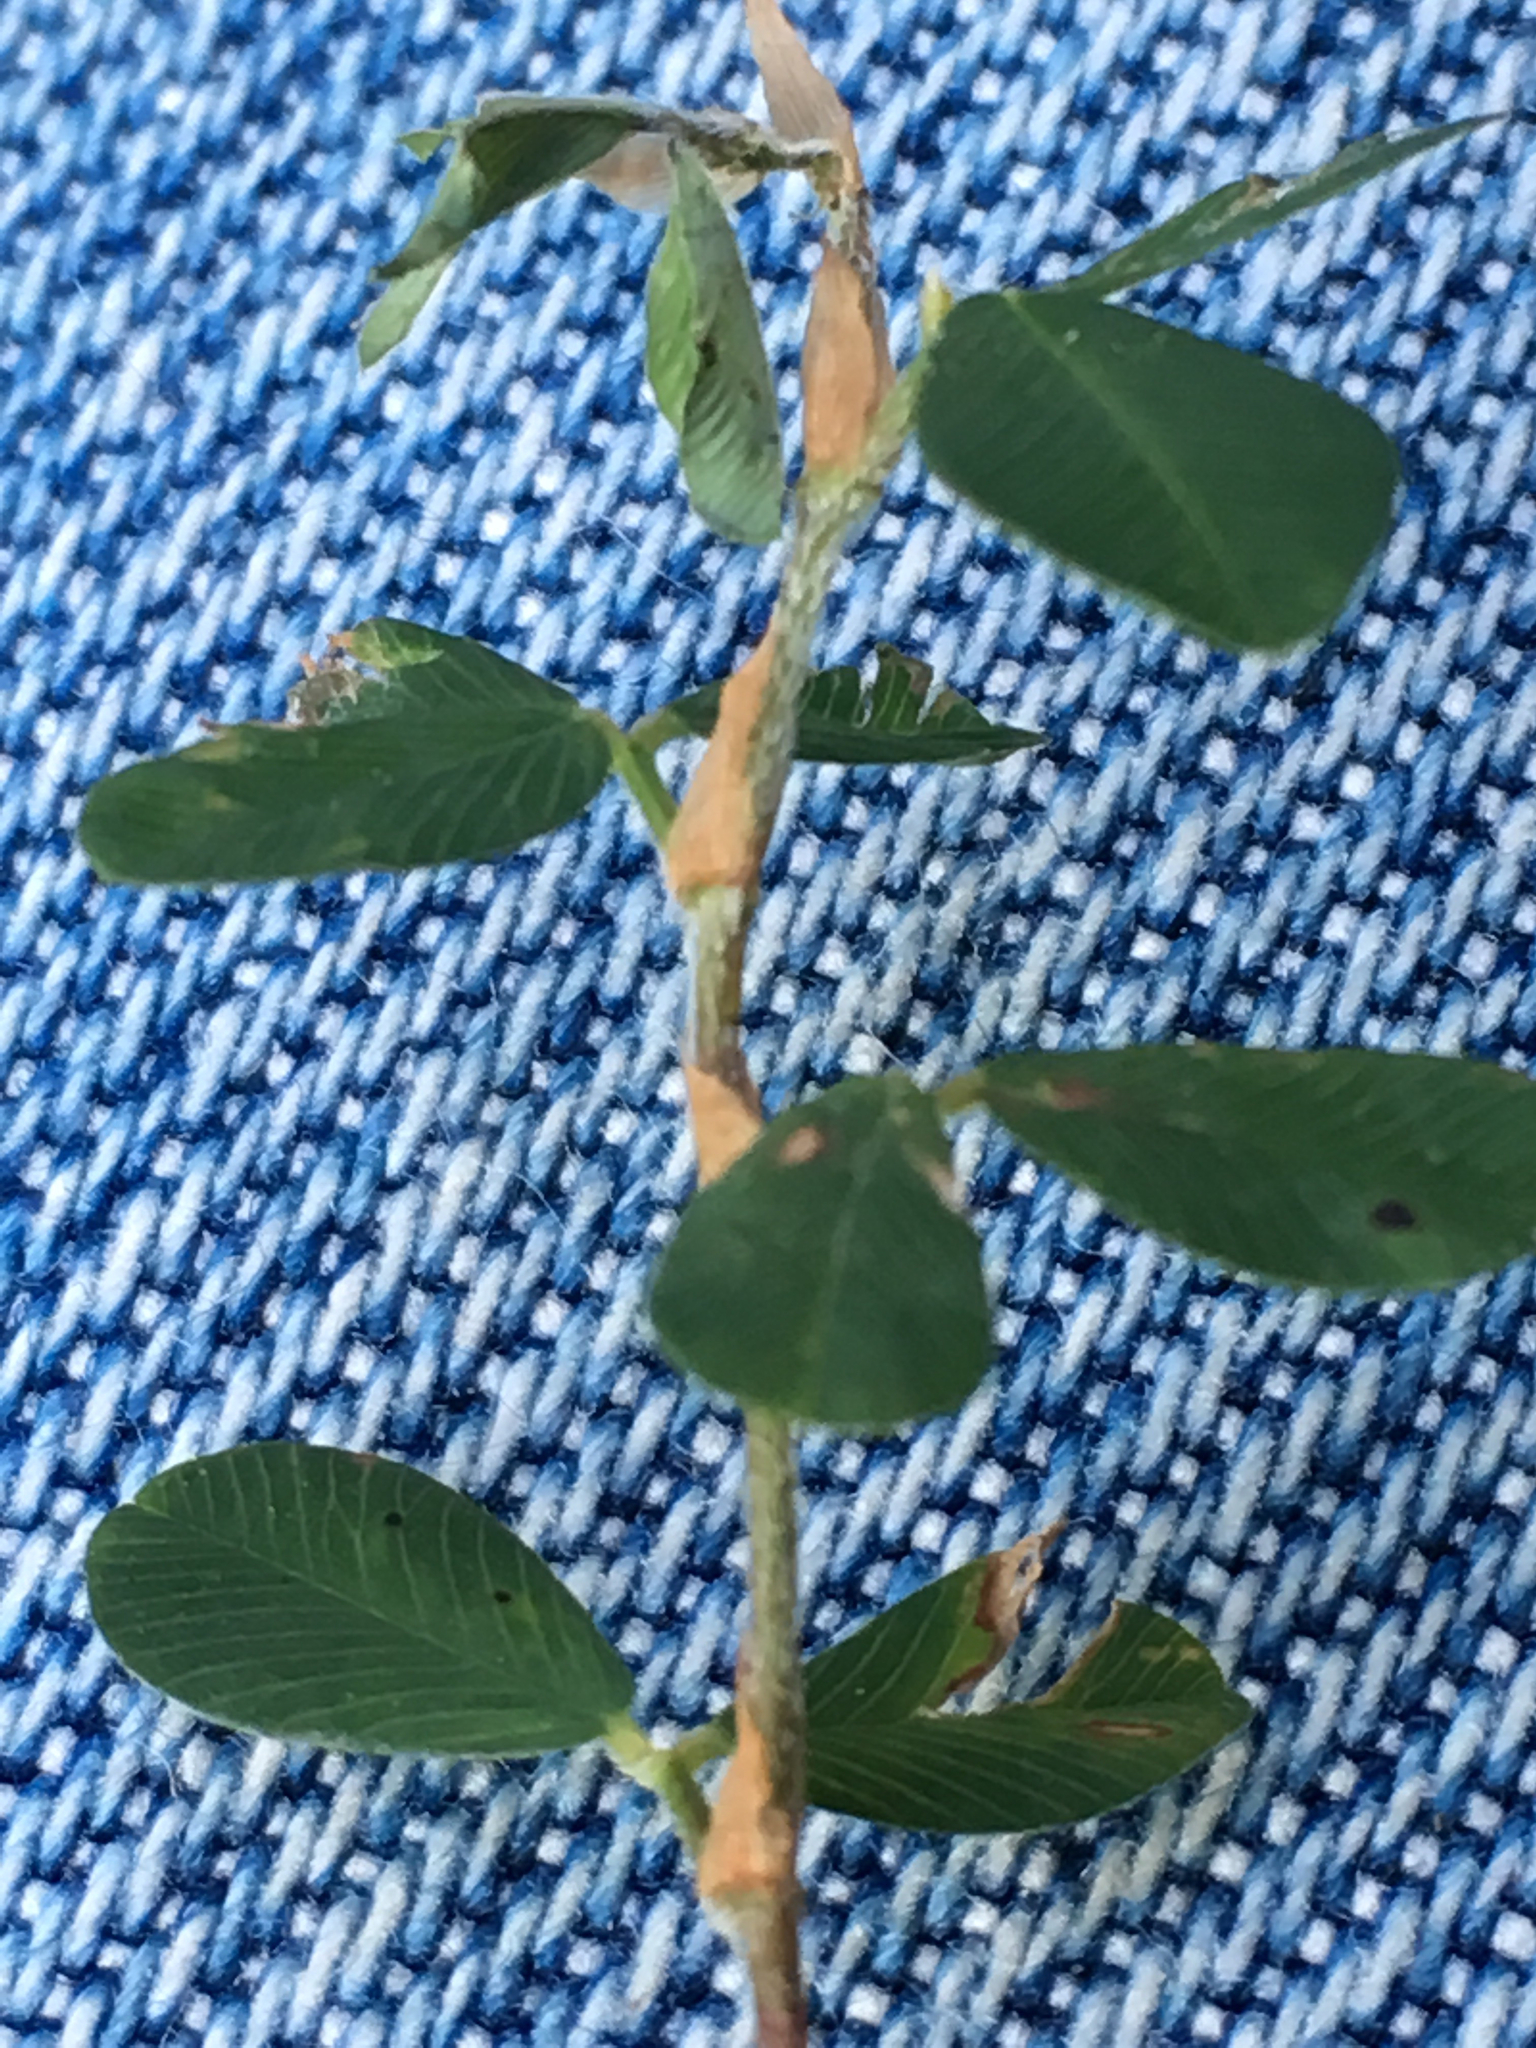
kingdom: Plantae
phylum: Tracheophyta
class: Magnoliopsida
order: Fabales
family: Fabaceae
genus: Kummerowia
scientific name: Kummerowia striata
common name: Japanese clover
